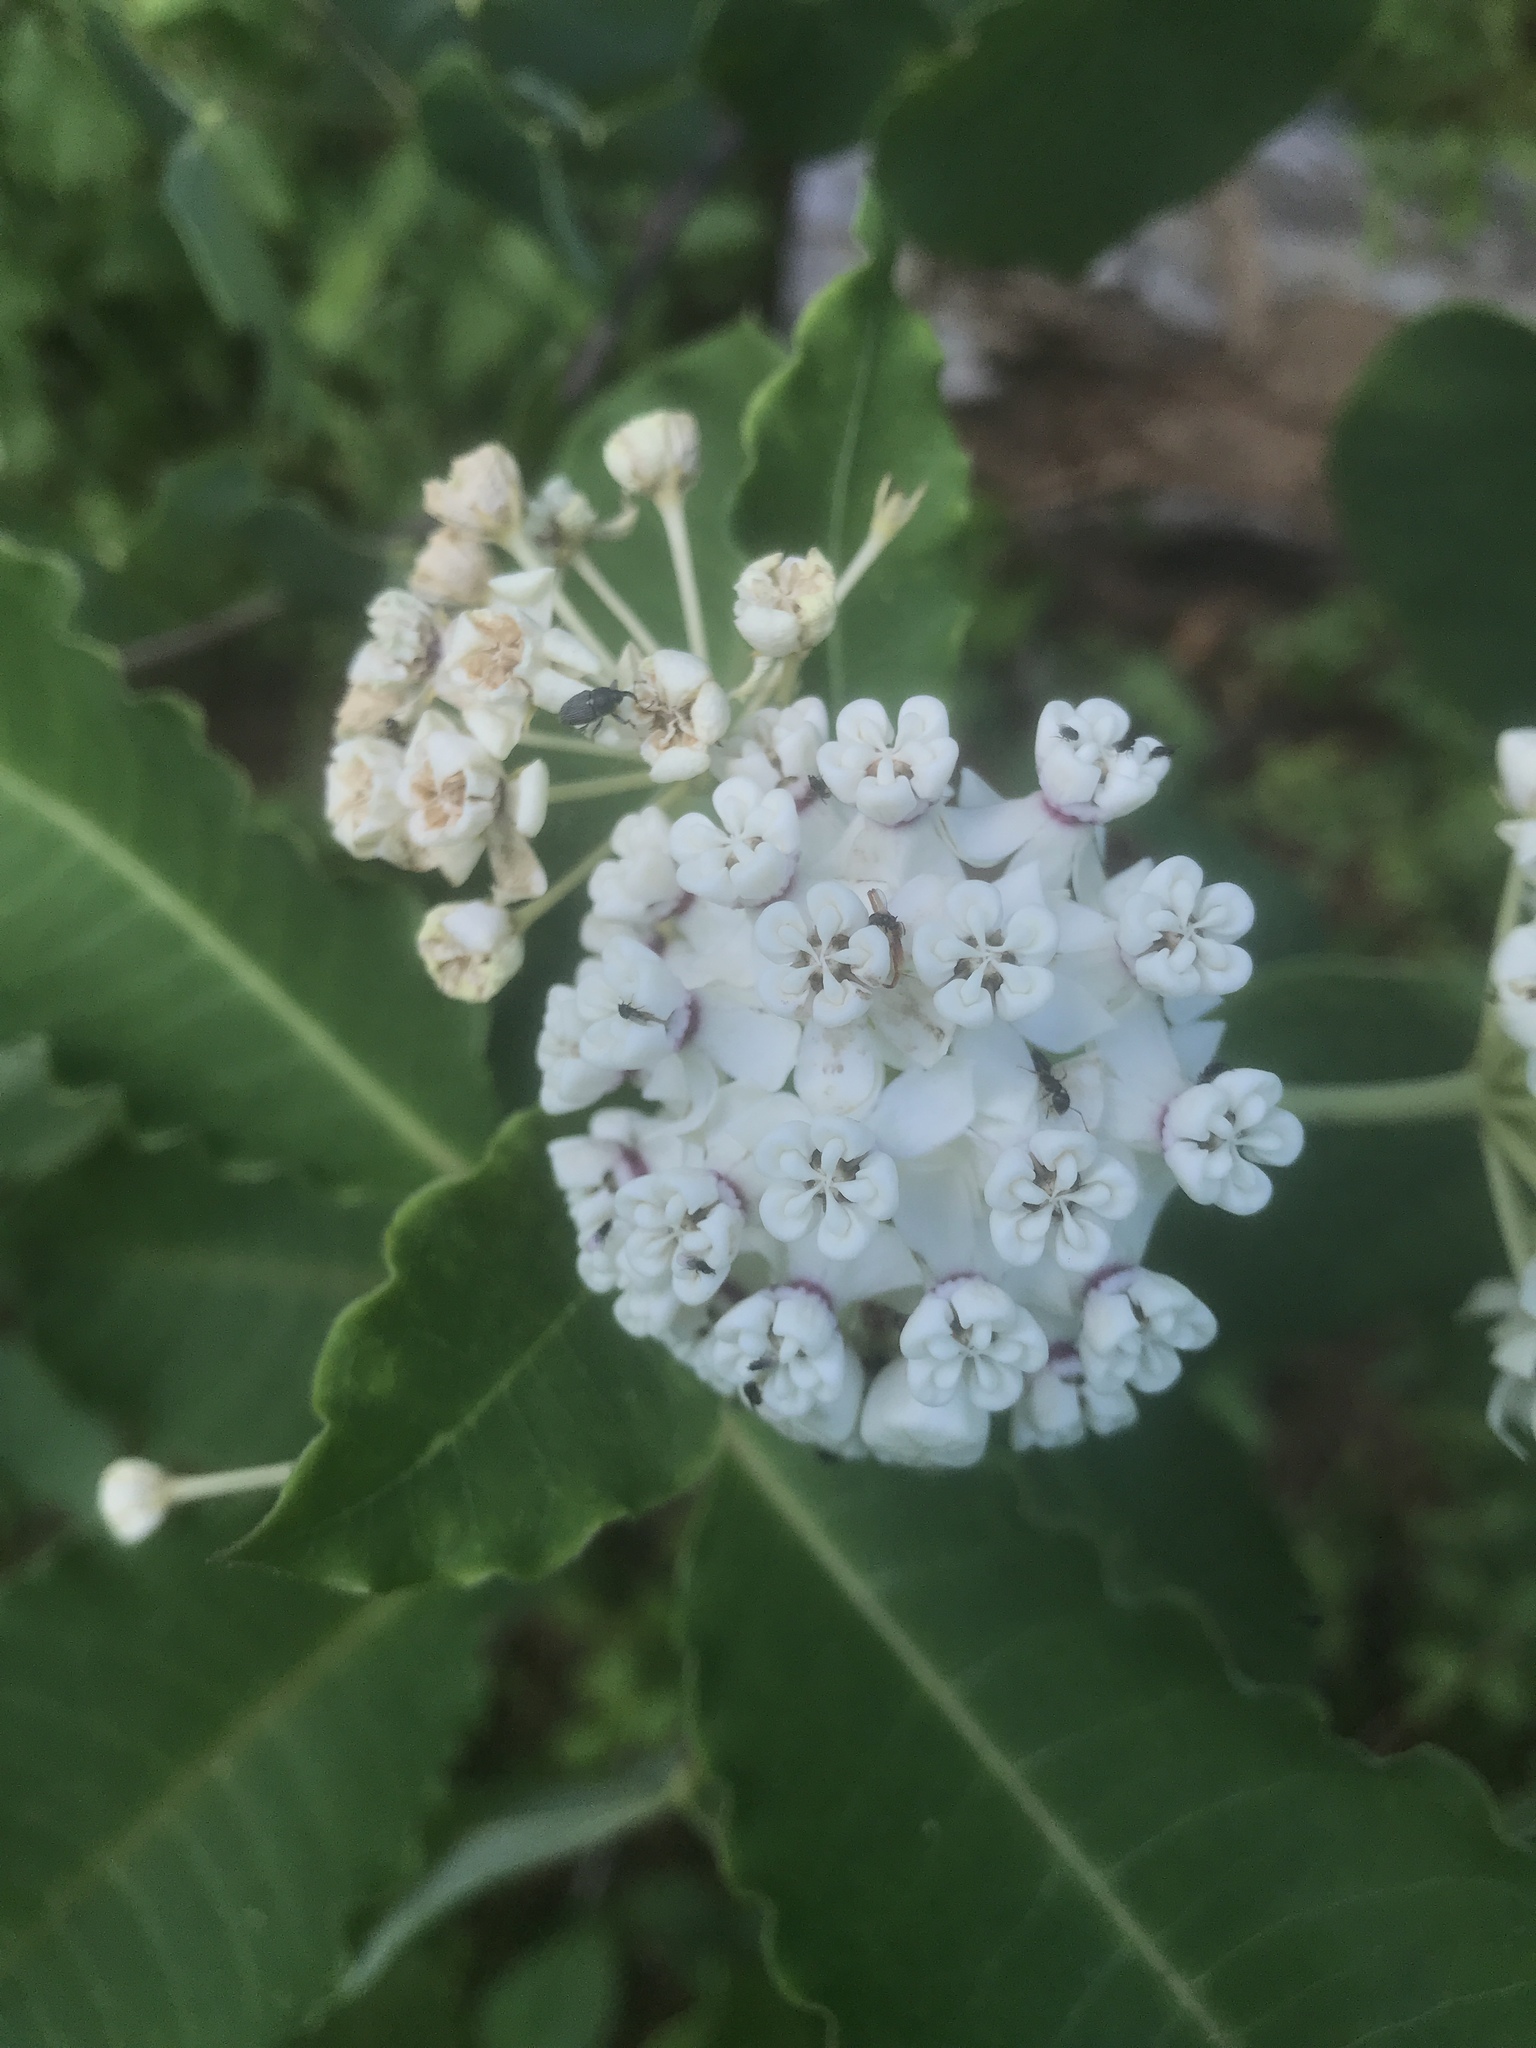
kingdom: Plantae
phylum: Tracheophyta
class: Magnoliopsida
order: Gentianales
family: Apocynaceae
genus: Asclepias
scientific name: Asclepias variegata
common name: Variegated milkweed
